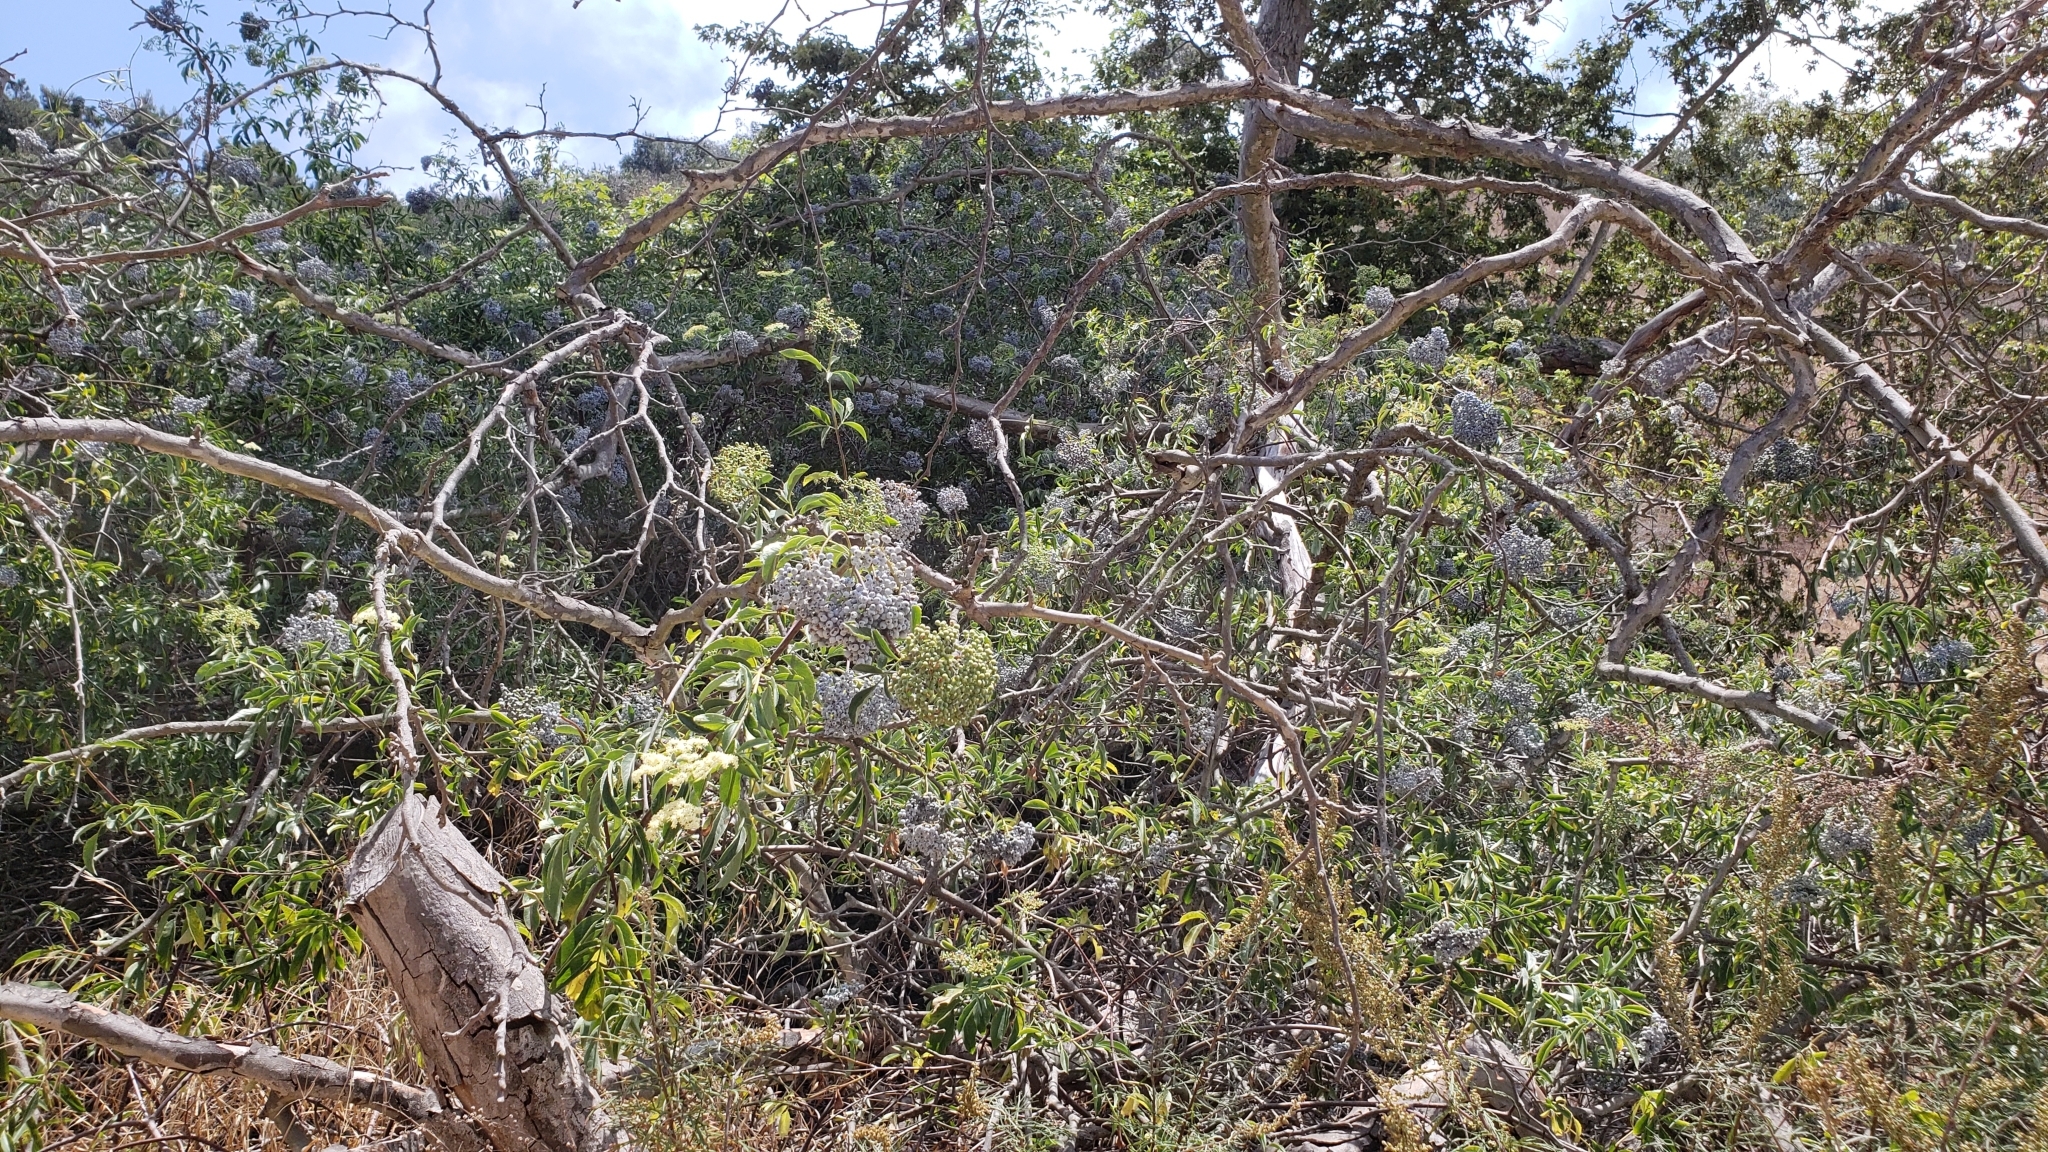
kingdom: Plantae
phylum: Tracheophyta
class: Magnoliopsida
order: Dipsacales
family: Viburnaceae
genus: Sambucus
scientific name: Sambucus cerulea
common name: Blue elder
